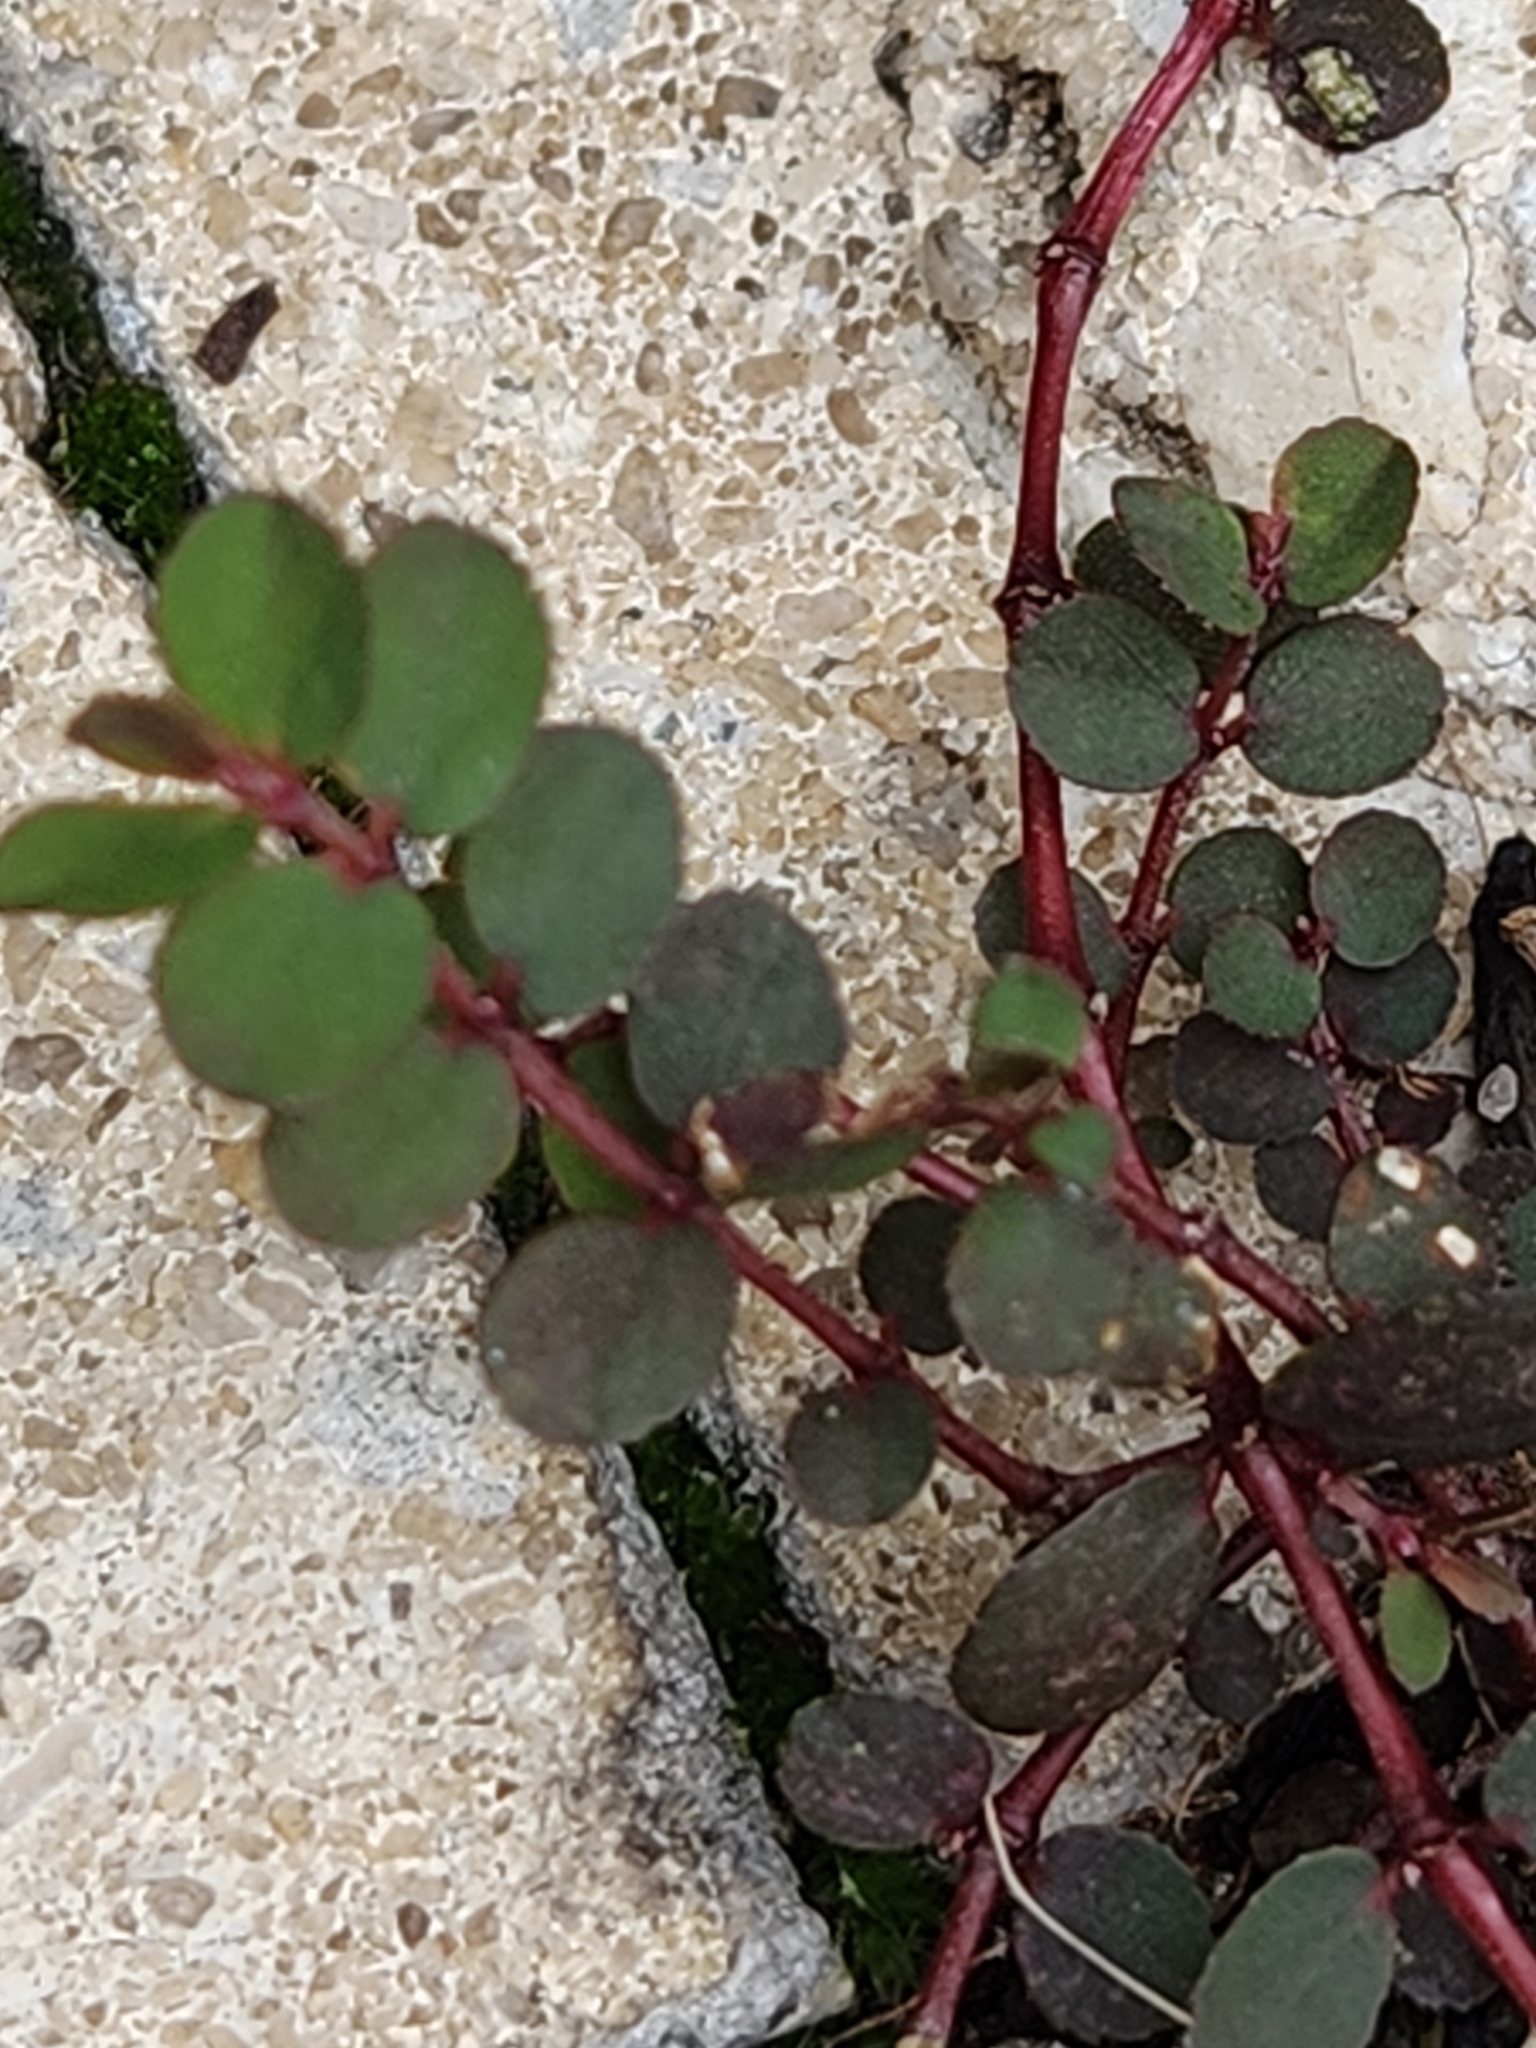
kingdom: Plantae
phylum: Tracheophyta
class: Magnoliopsida
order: Malpighiales
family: Euphorbiaceae
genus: Euphorbia
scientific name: Euphorbia prostrata
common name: Prostrate sandmat
